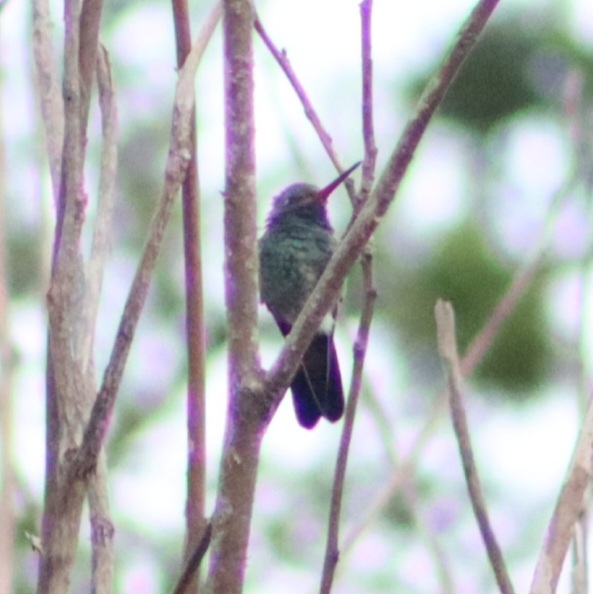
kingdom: Animalia
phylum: Chordata
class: Aves
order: Apodiformes
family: Trochilidae
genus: Cynanthus
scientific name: Cynanthus latirostris
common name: Broad-billed hummingbird
